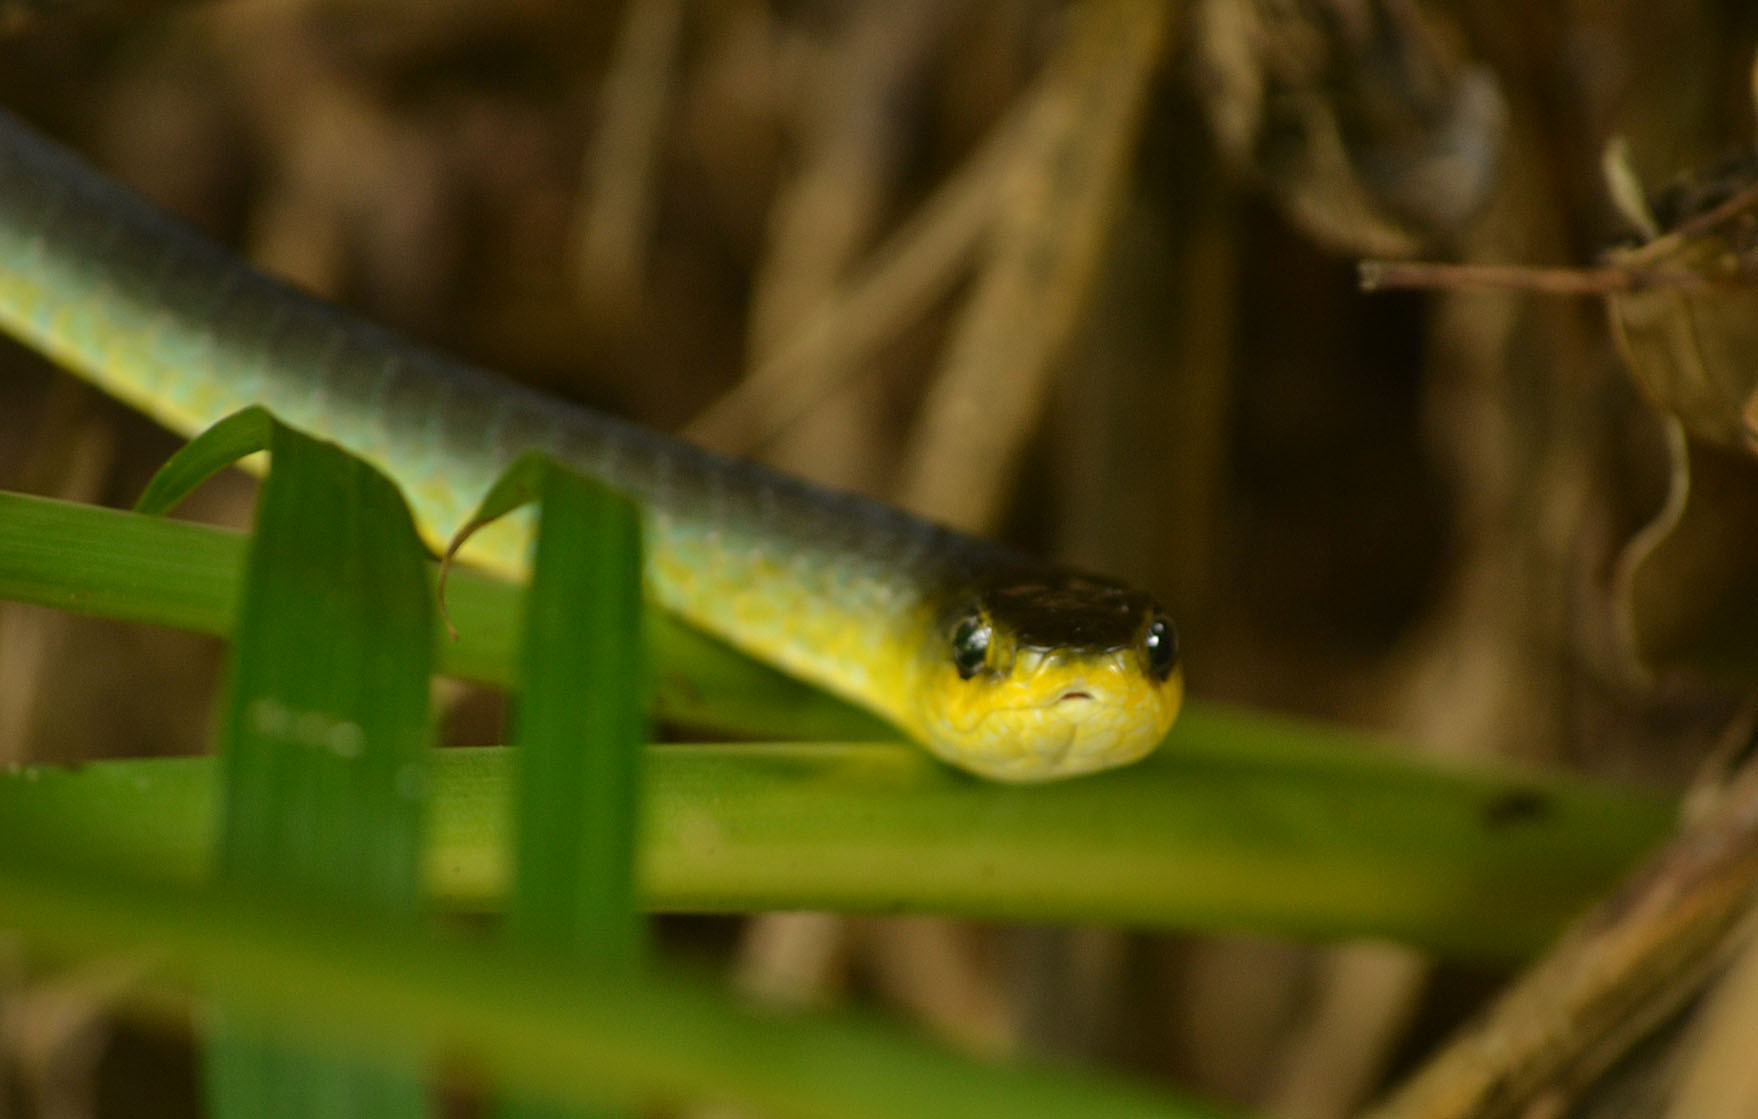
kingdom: Animalia
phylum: Chordata
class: Squamata
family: Colubridae
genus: Dendrelaphis
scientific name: Dendrelaphis punctulatus
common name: Common tree snake
